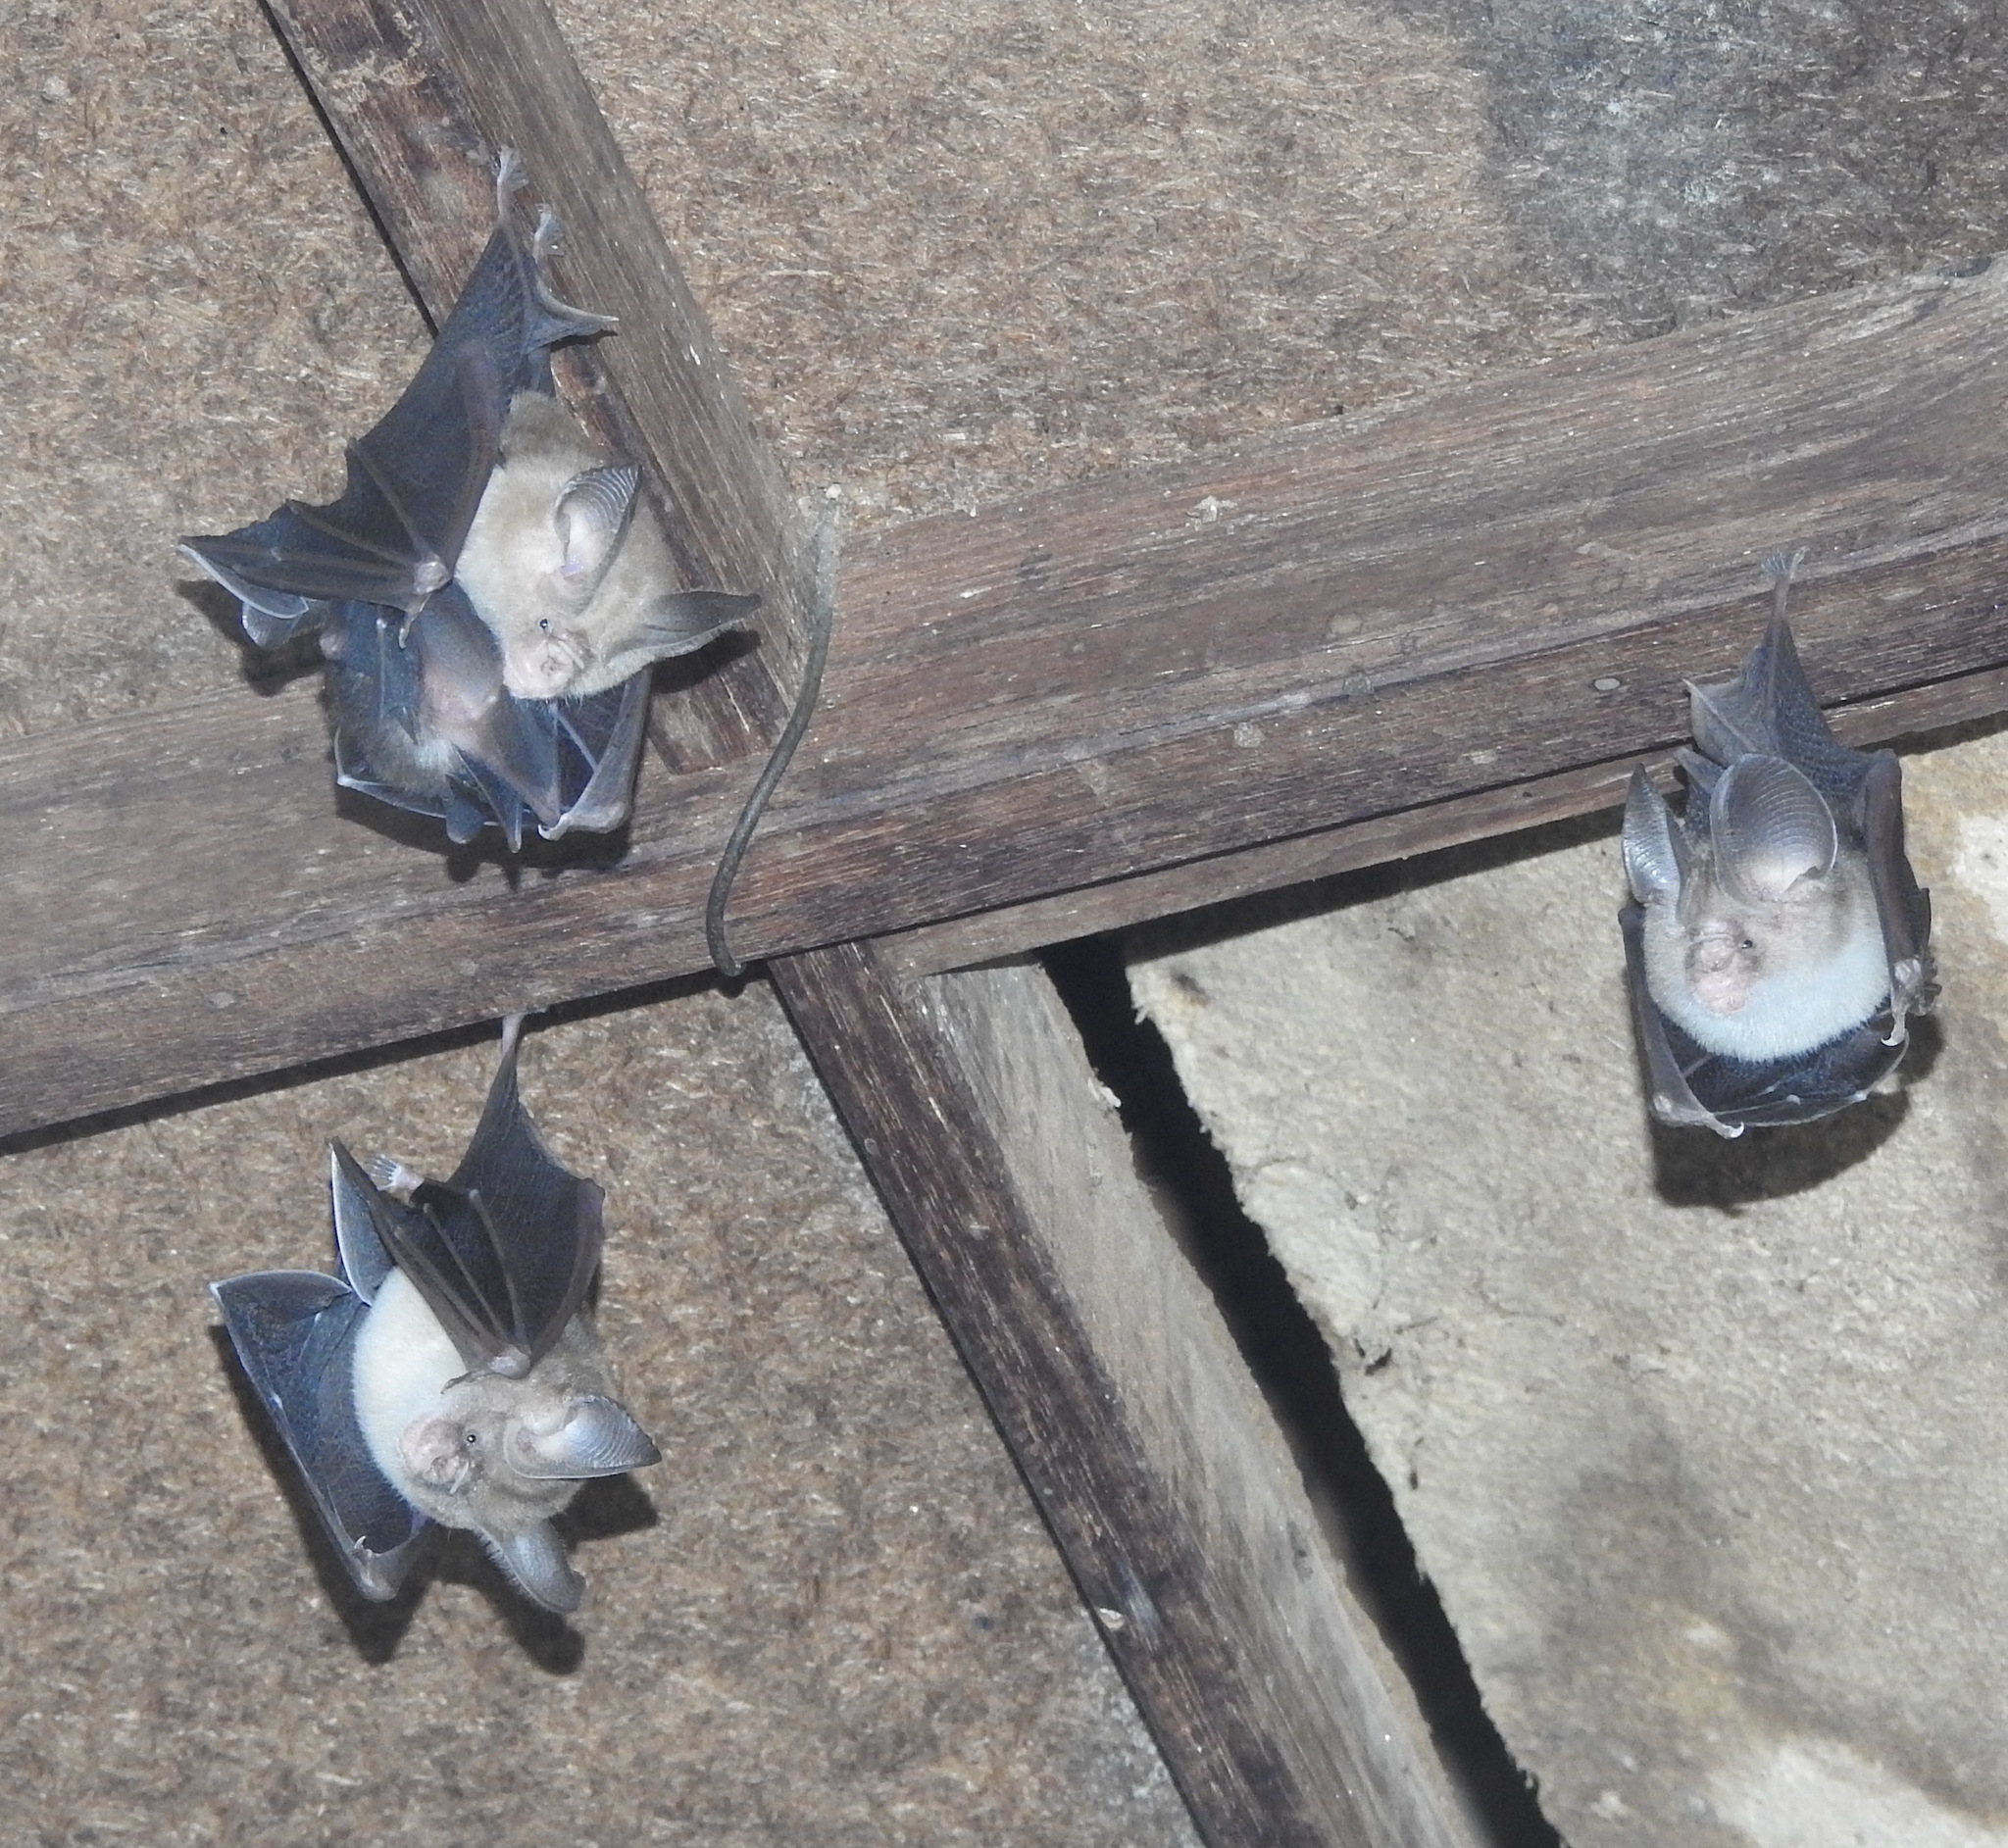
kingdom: Animalia
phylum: Chordata
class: Mammalia
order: Chiroptera
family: Hipposideridae
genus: Hipposideros
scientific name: Hipposideros fulvus
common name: Fulvus leaf-nosed bat
